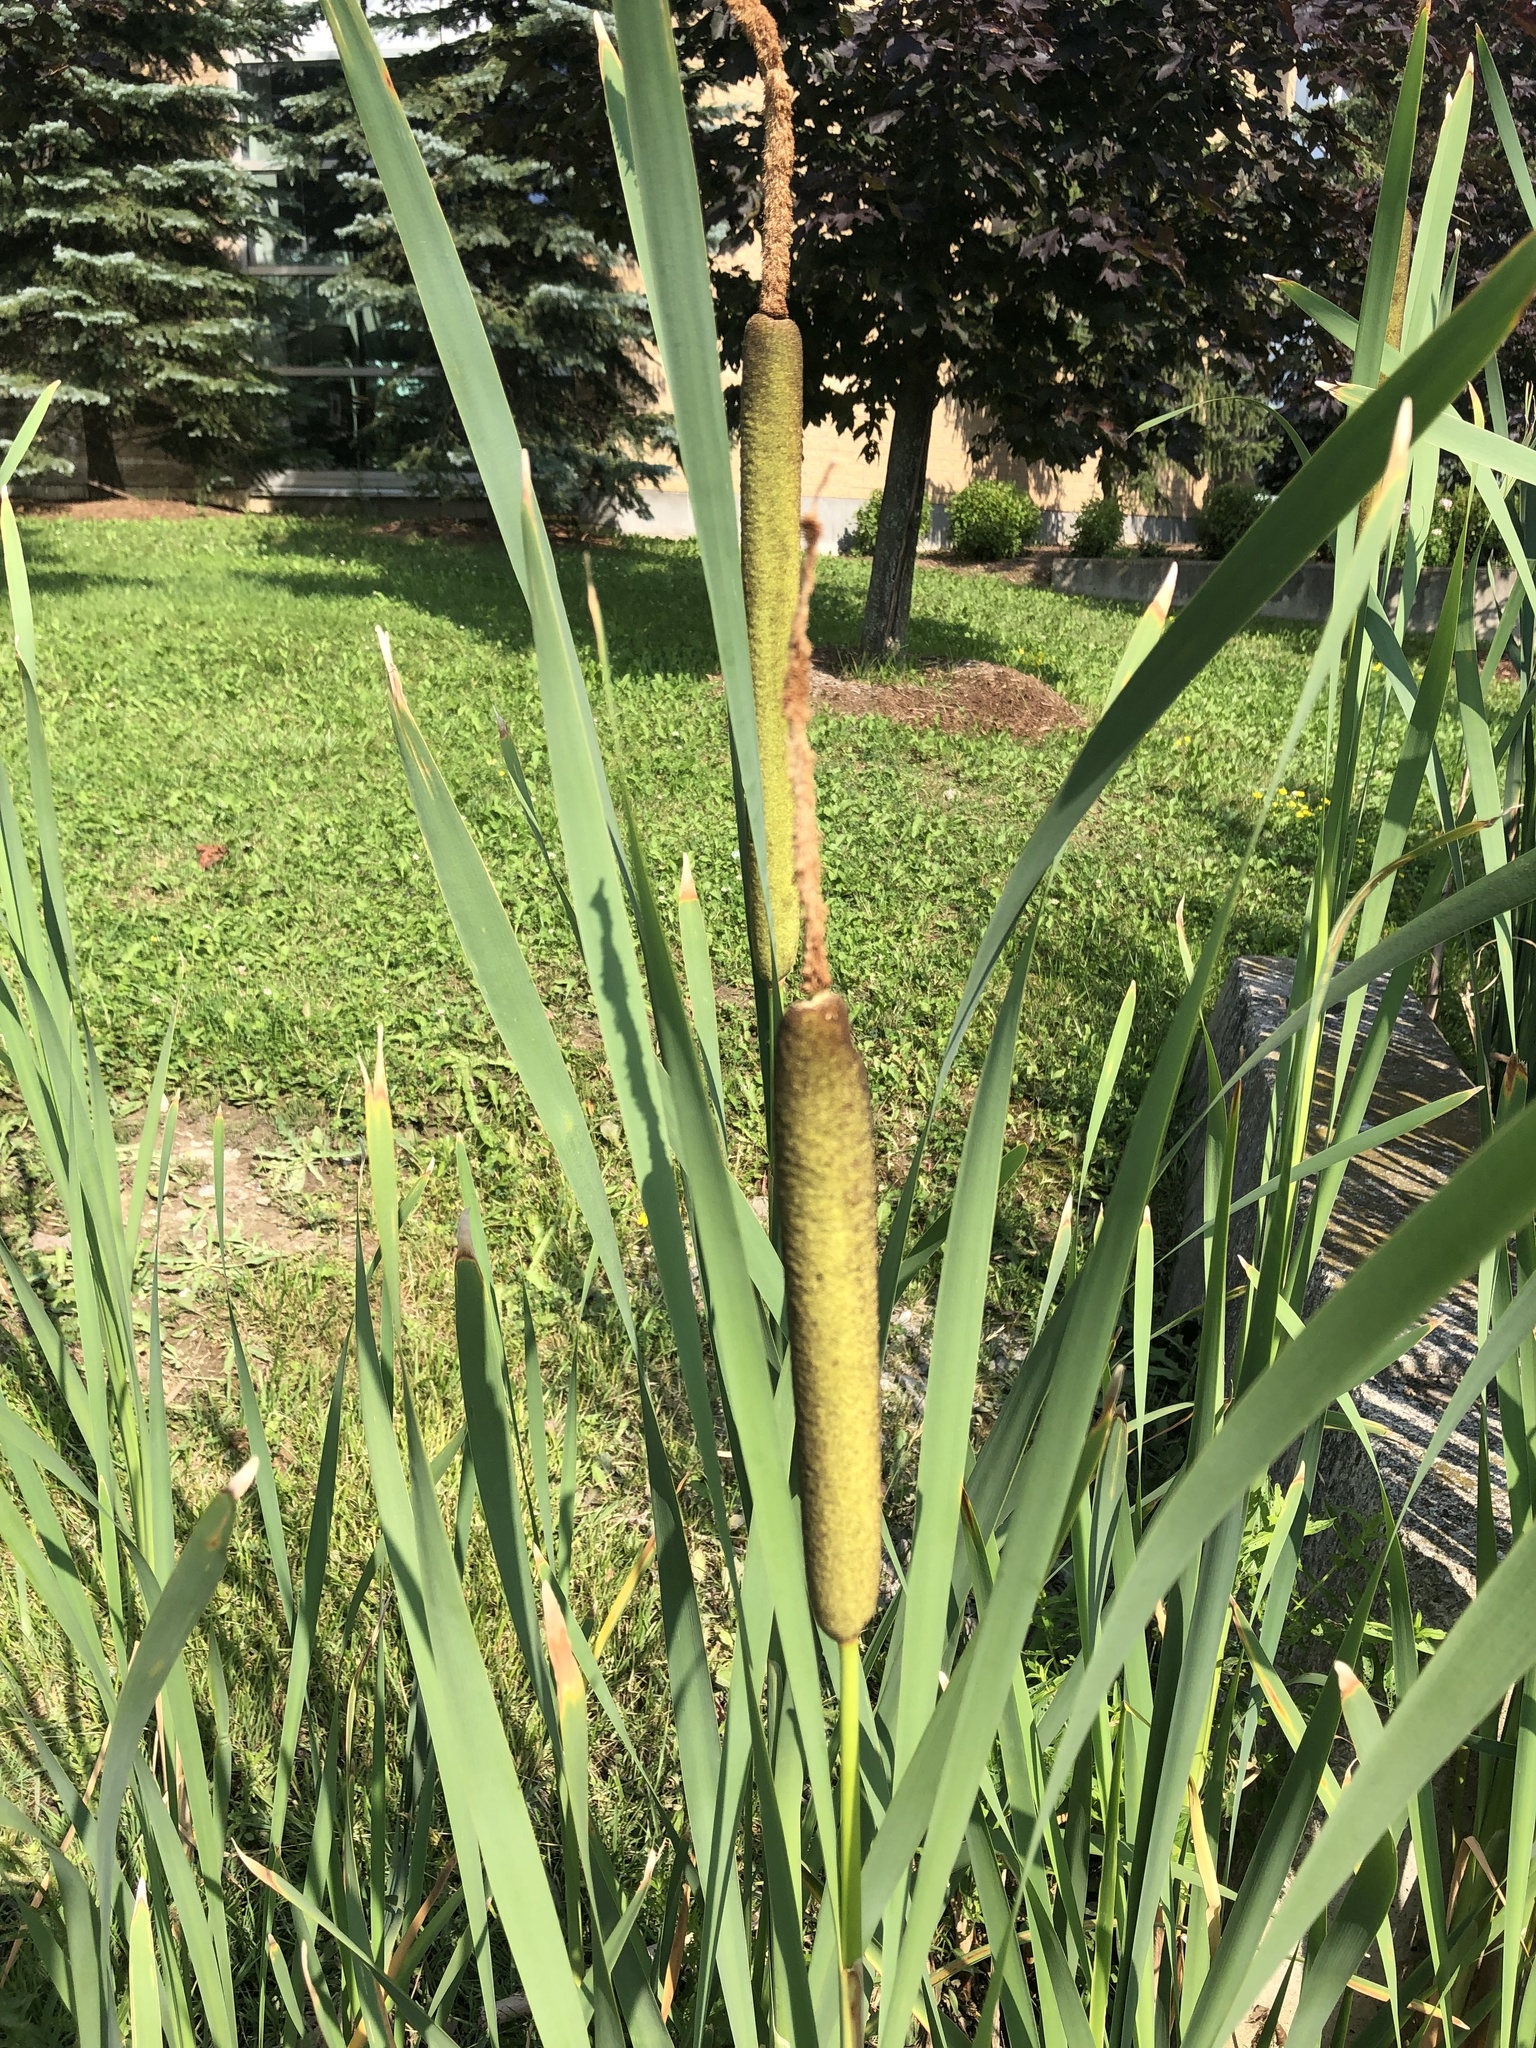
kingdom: Plantae
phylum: Tracheophyta
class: Liliopsida
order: Poales
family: Typhaceae
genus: Typha
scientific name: Typha latifolia
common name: Broadleaf cattail
